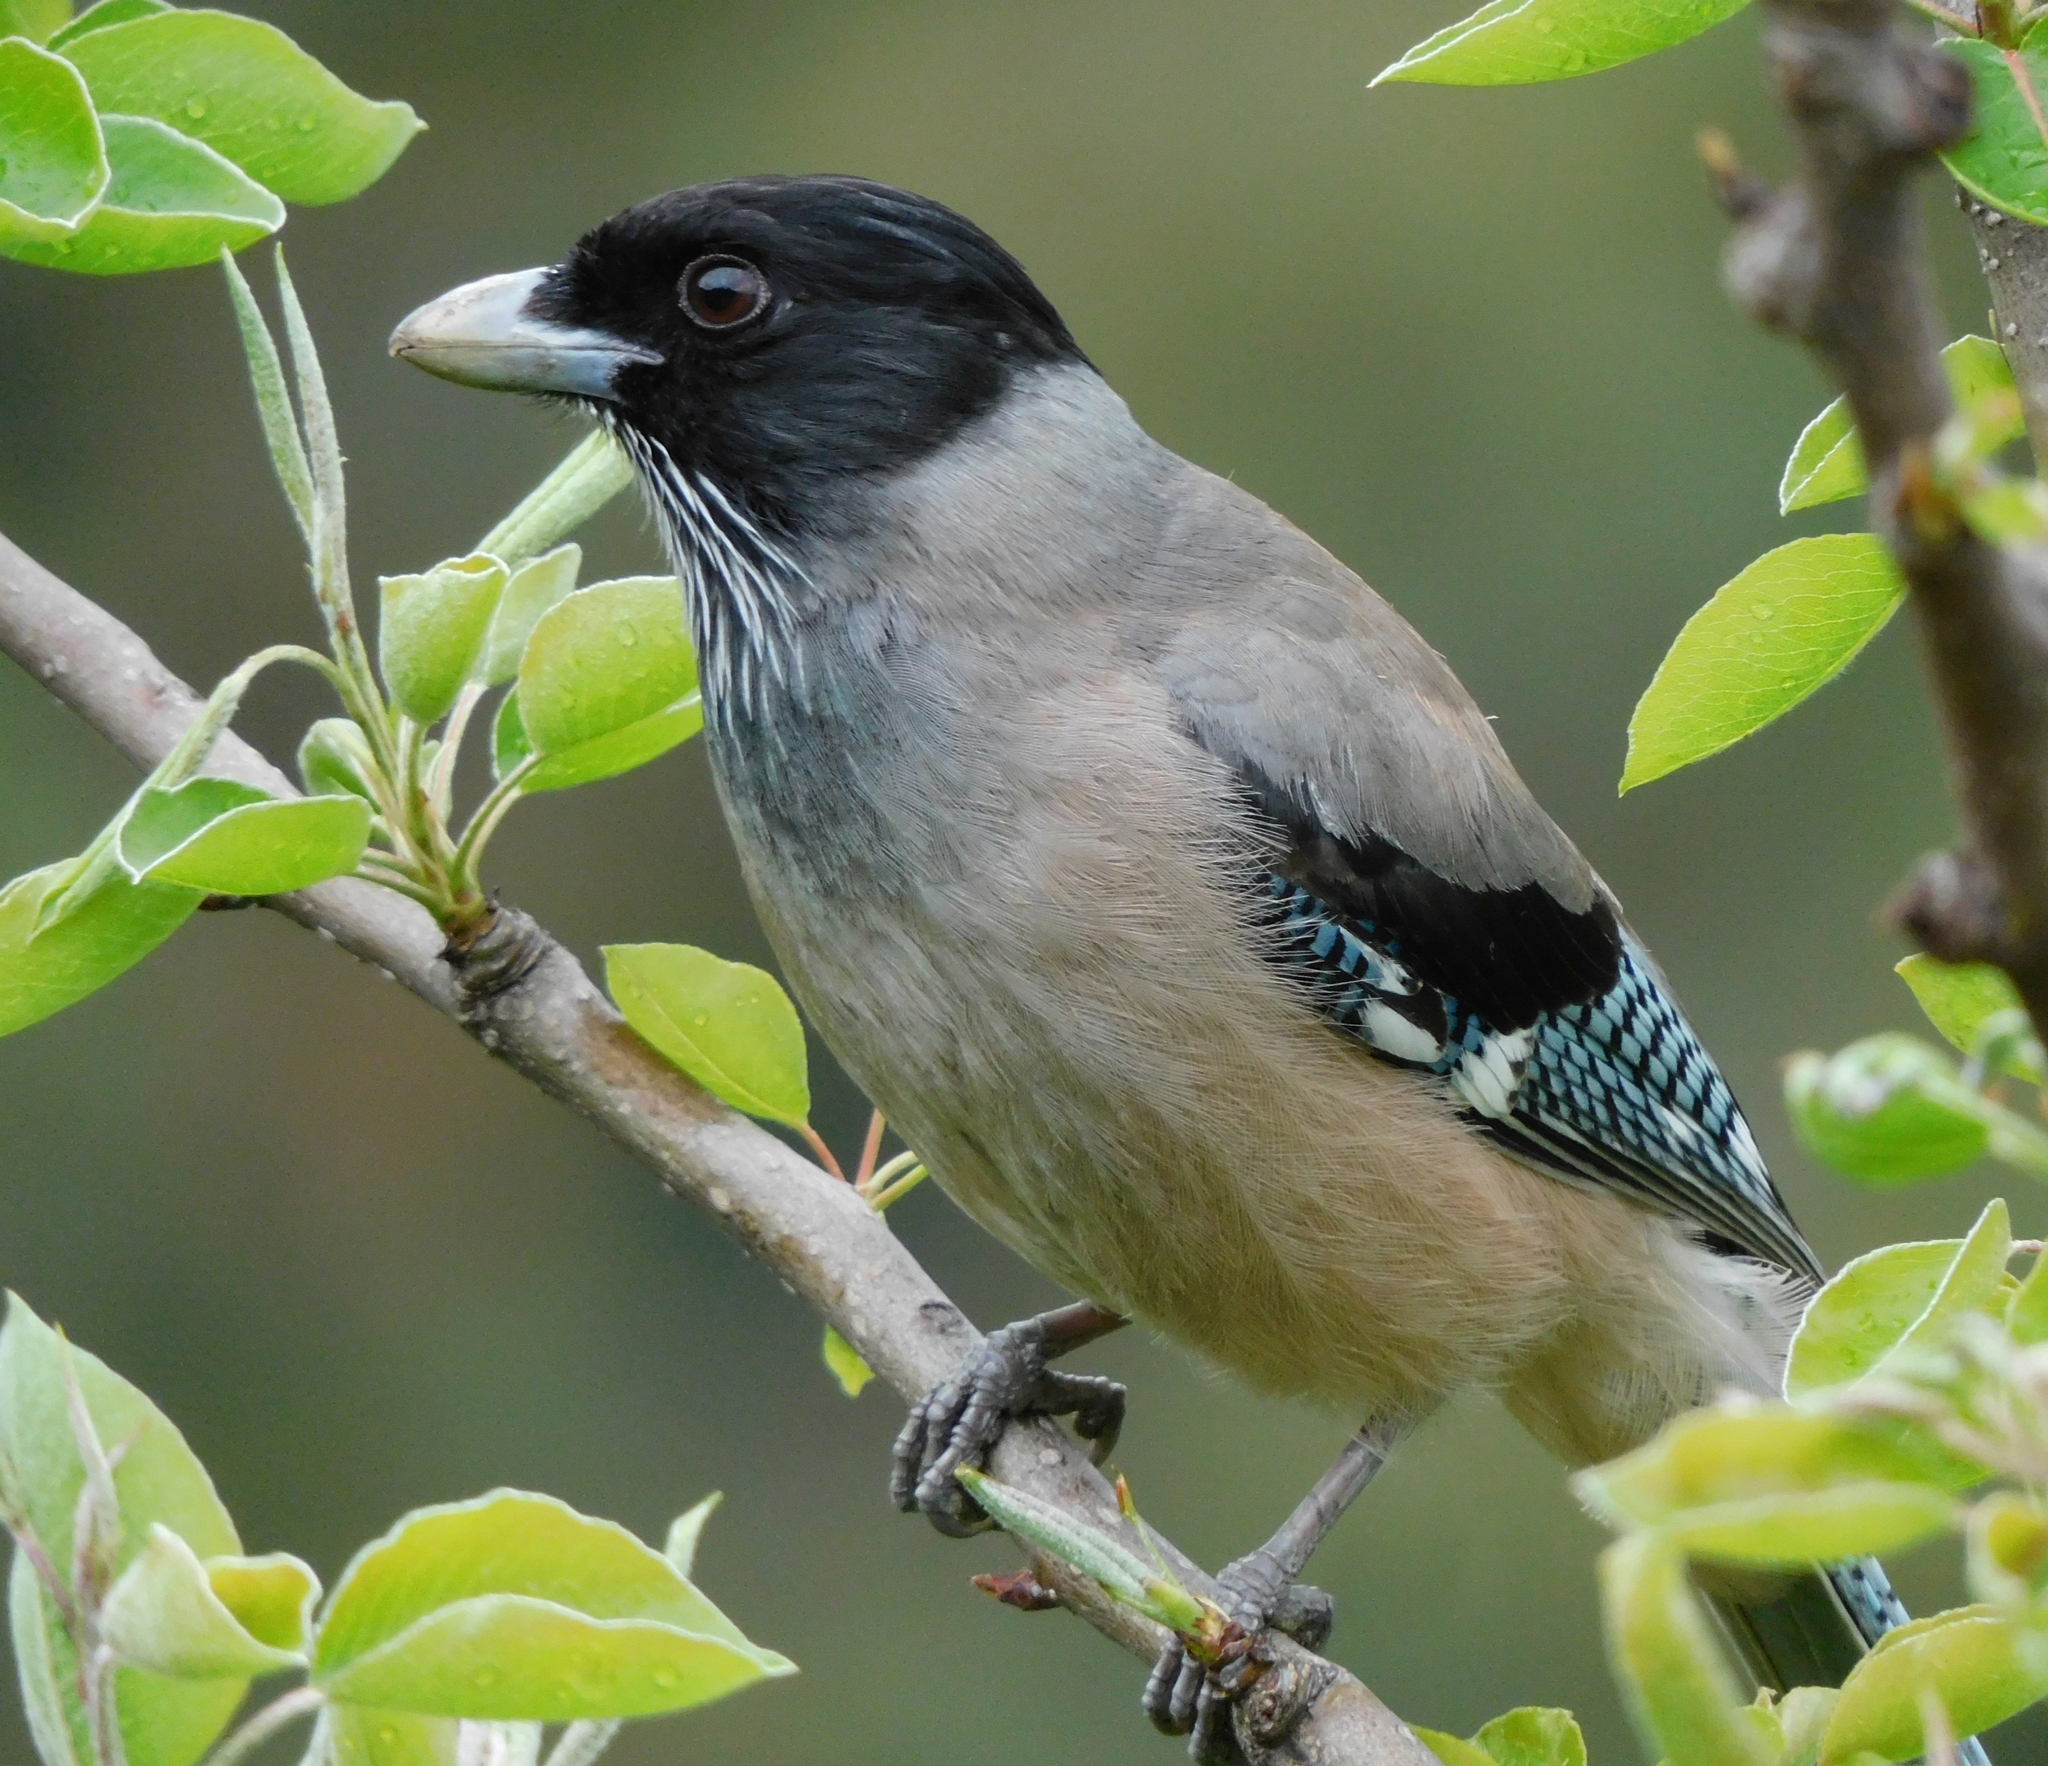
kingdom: Animalia
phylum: Chordata
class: Aves
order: Passeriformes
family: Corvidae
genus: Garrulus
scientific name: Garrulus lanceolatus
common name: Black-headed jay
